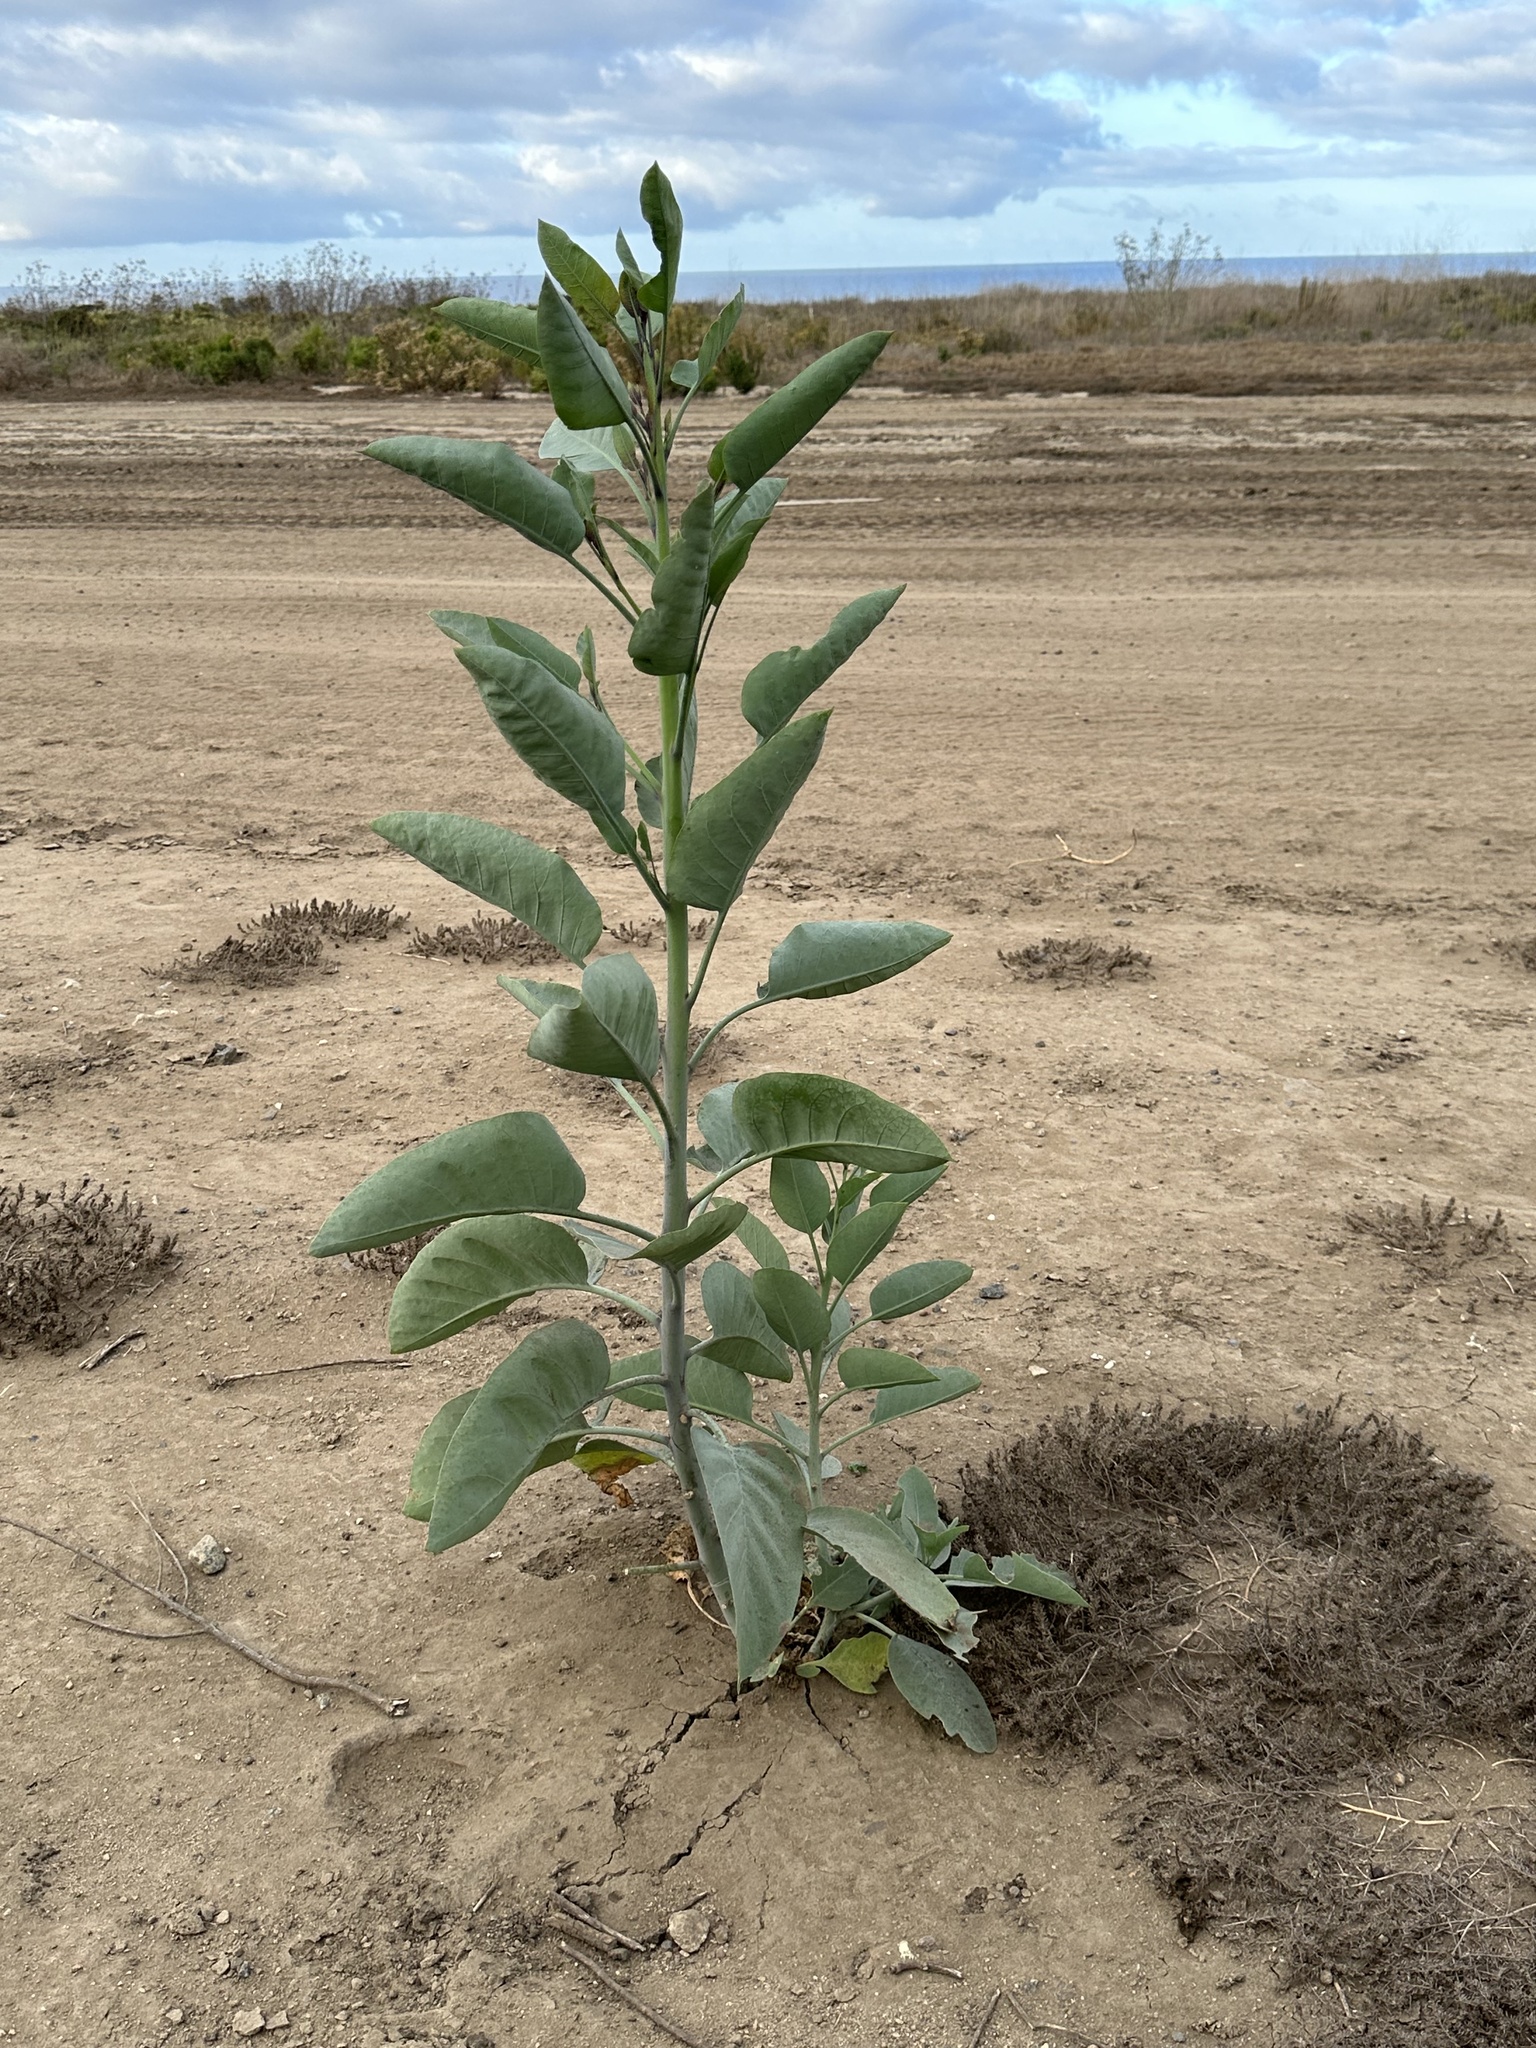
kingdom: Plantae
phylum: Tracheophyta
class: Magnoliopsida
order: Solanales
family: Solanaceae
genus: Nicotiana
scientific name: Nicotiana glauca
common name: Tree tobacco
